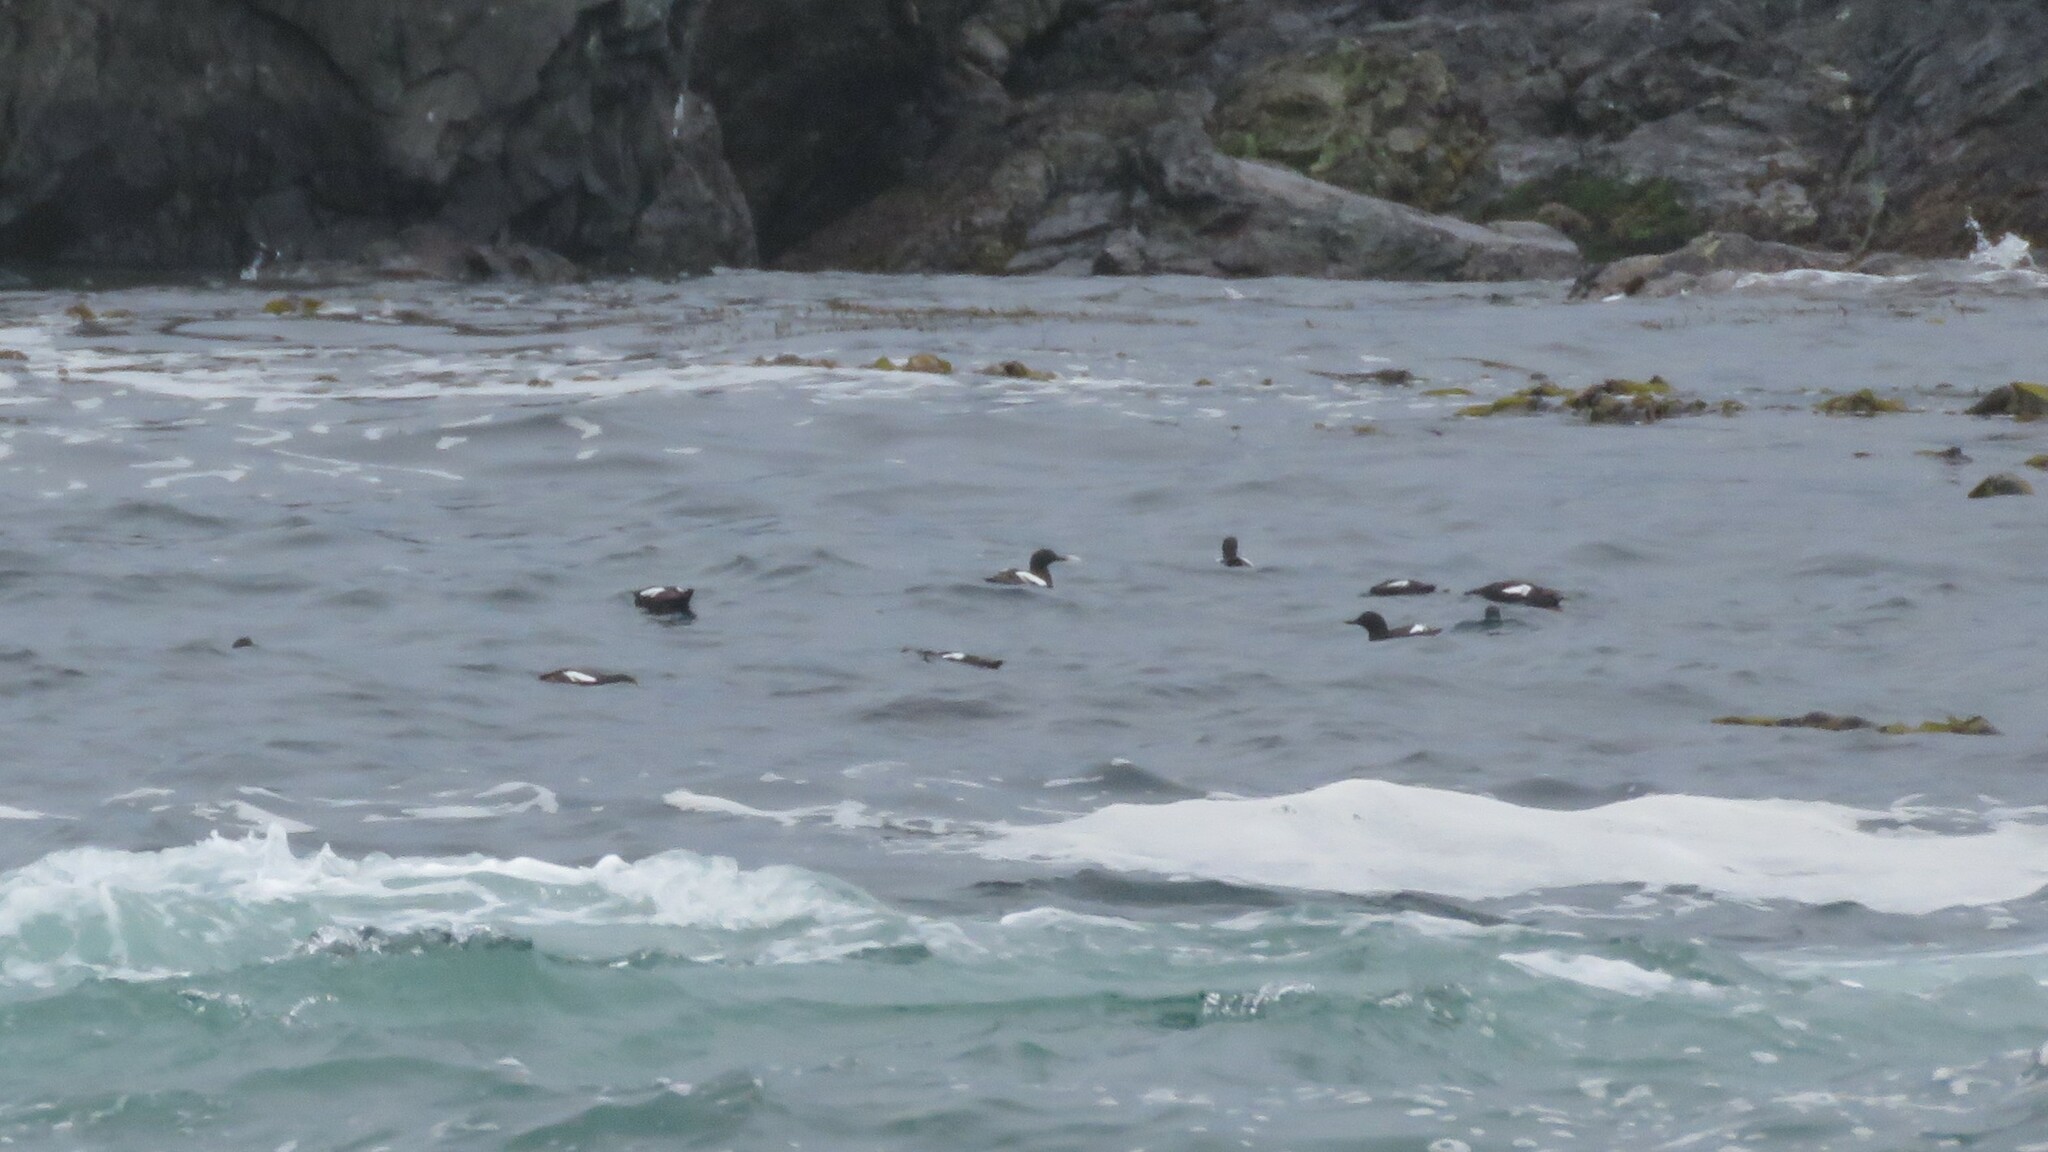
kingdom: Animalia
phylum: Chordata
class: Aves
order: Charadriiformes
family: Alcidae
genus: Cepphus
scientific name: Cepphus columba
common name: Pigeon guillemot
